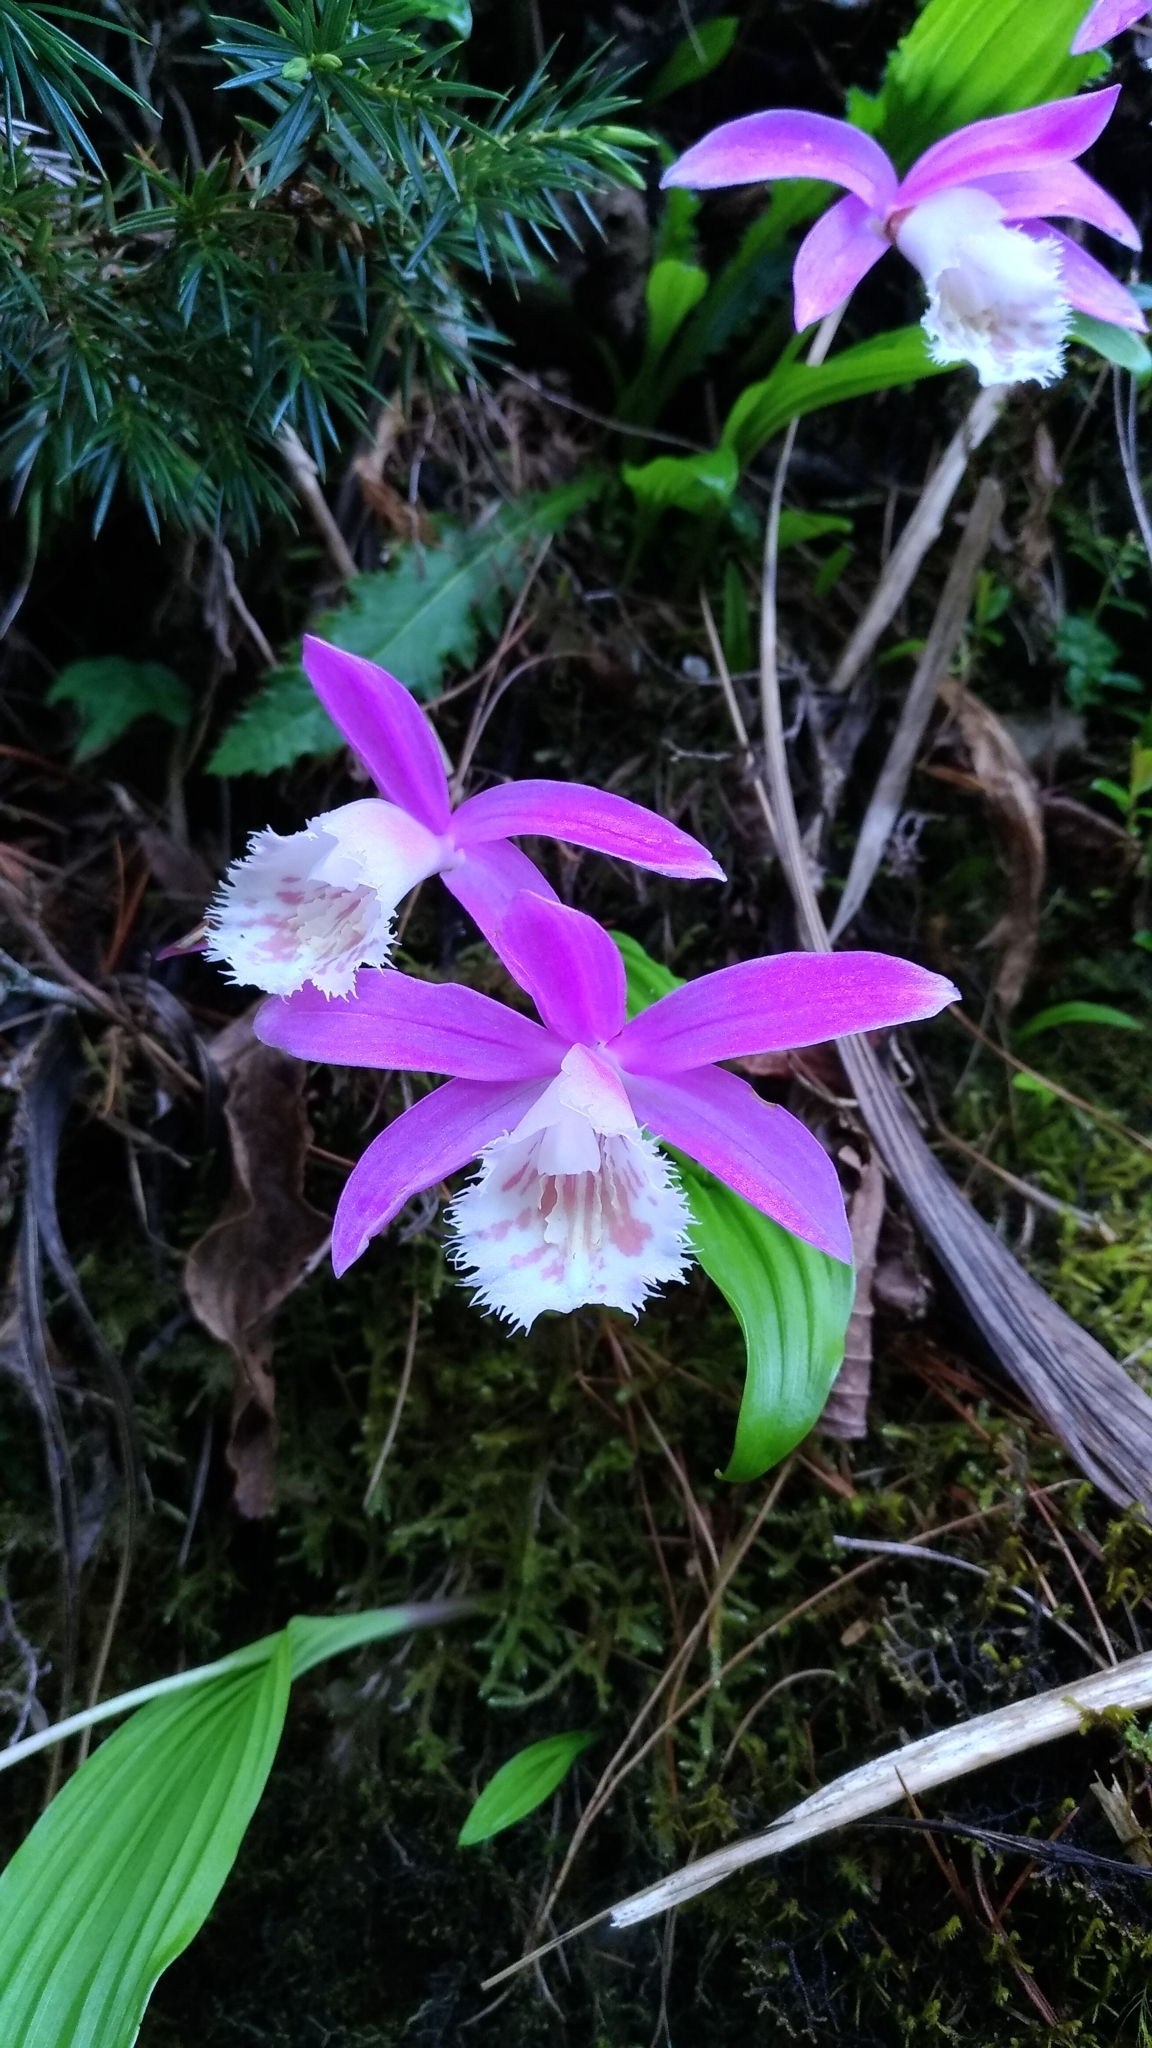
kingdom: Plantae
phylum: Tracheophyta
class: Liliopsida
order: Asparagales
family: Orchidaceae
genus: Pleione
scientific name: Pleione formosana
